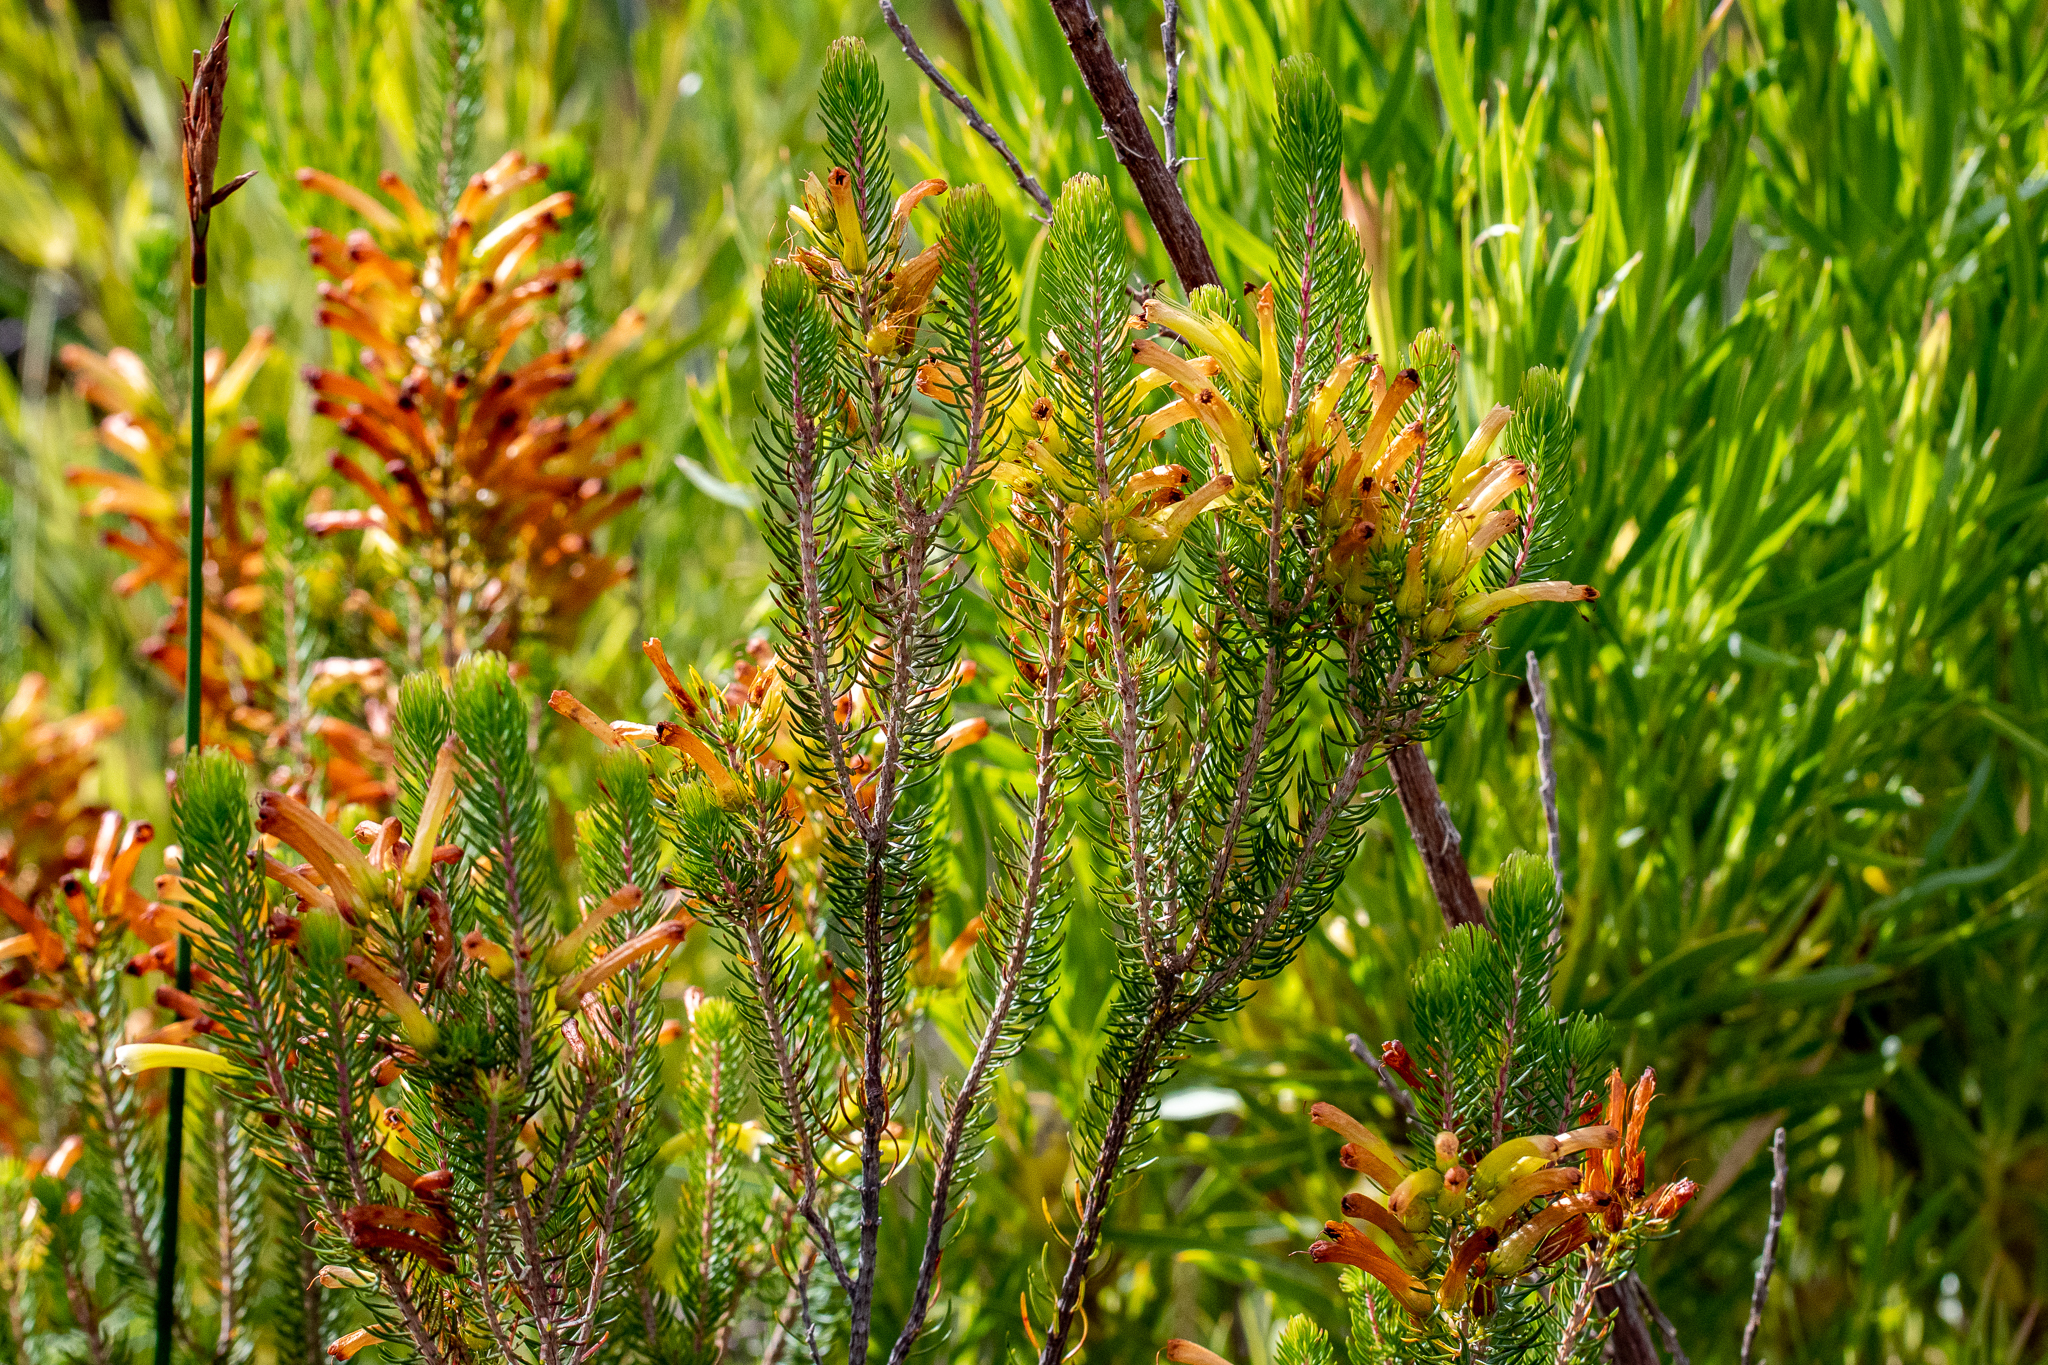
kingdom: Plantae
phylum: Tracheophyta
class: Magnoliopsida
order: Ericales
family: Ericaceae
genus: Erica
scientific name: Erica pinea
